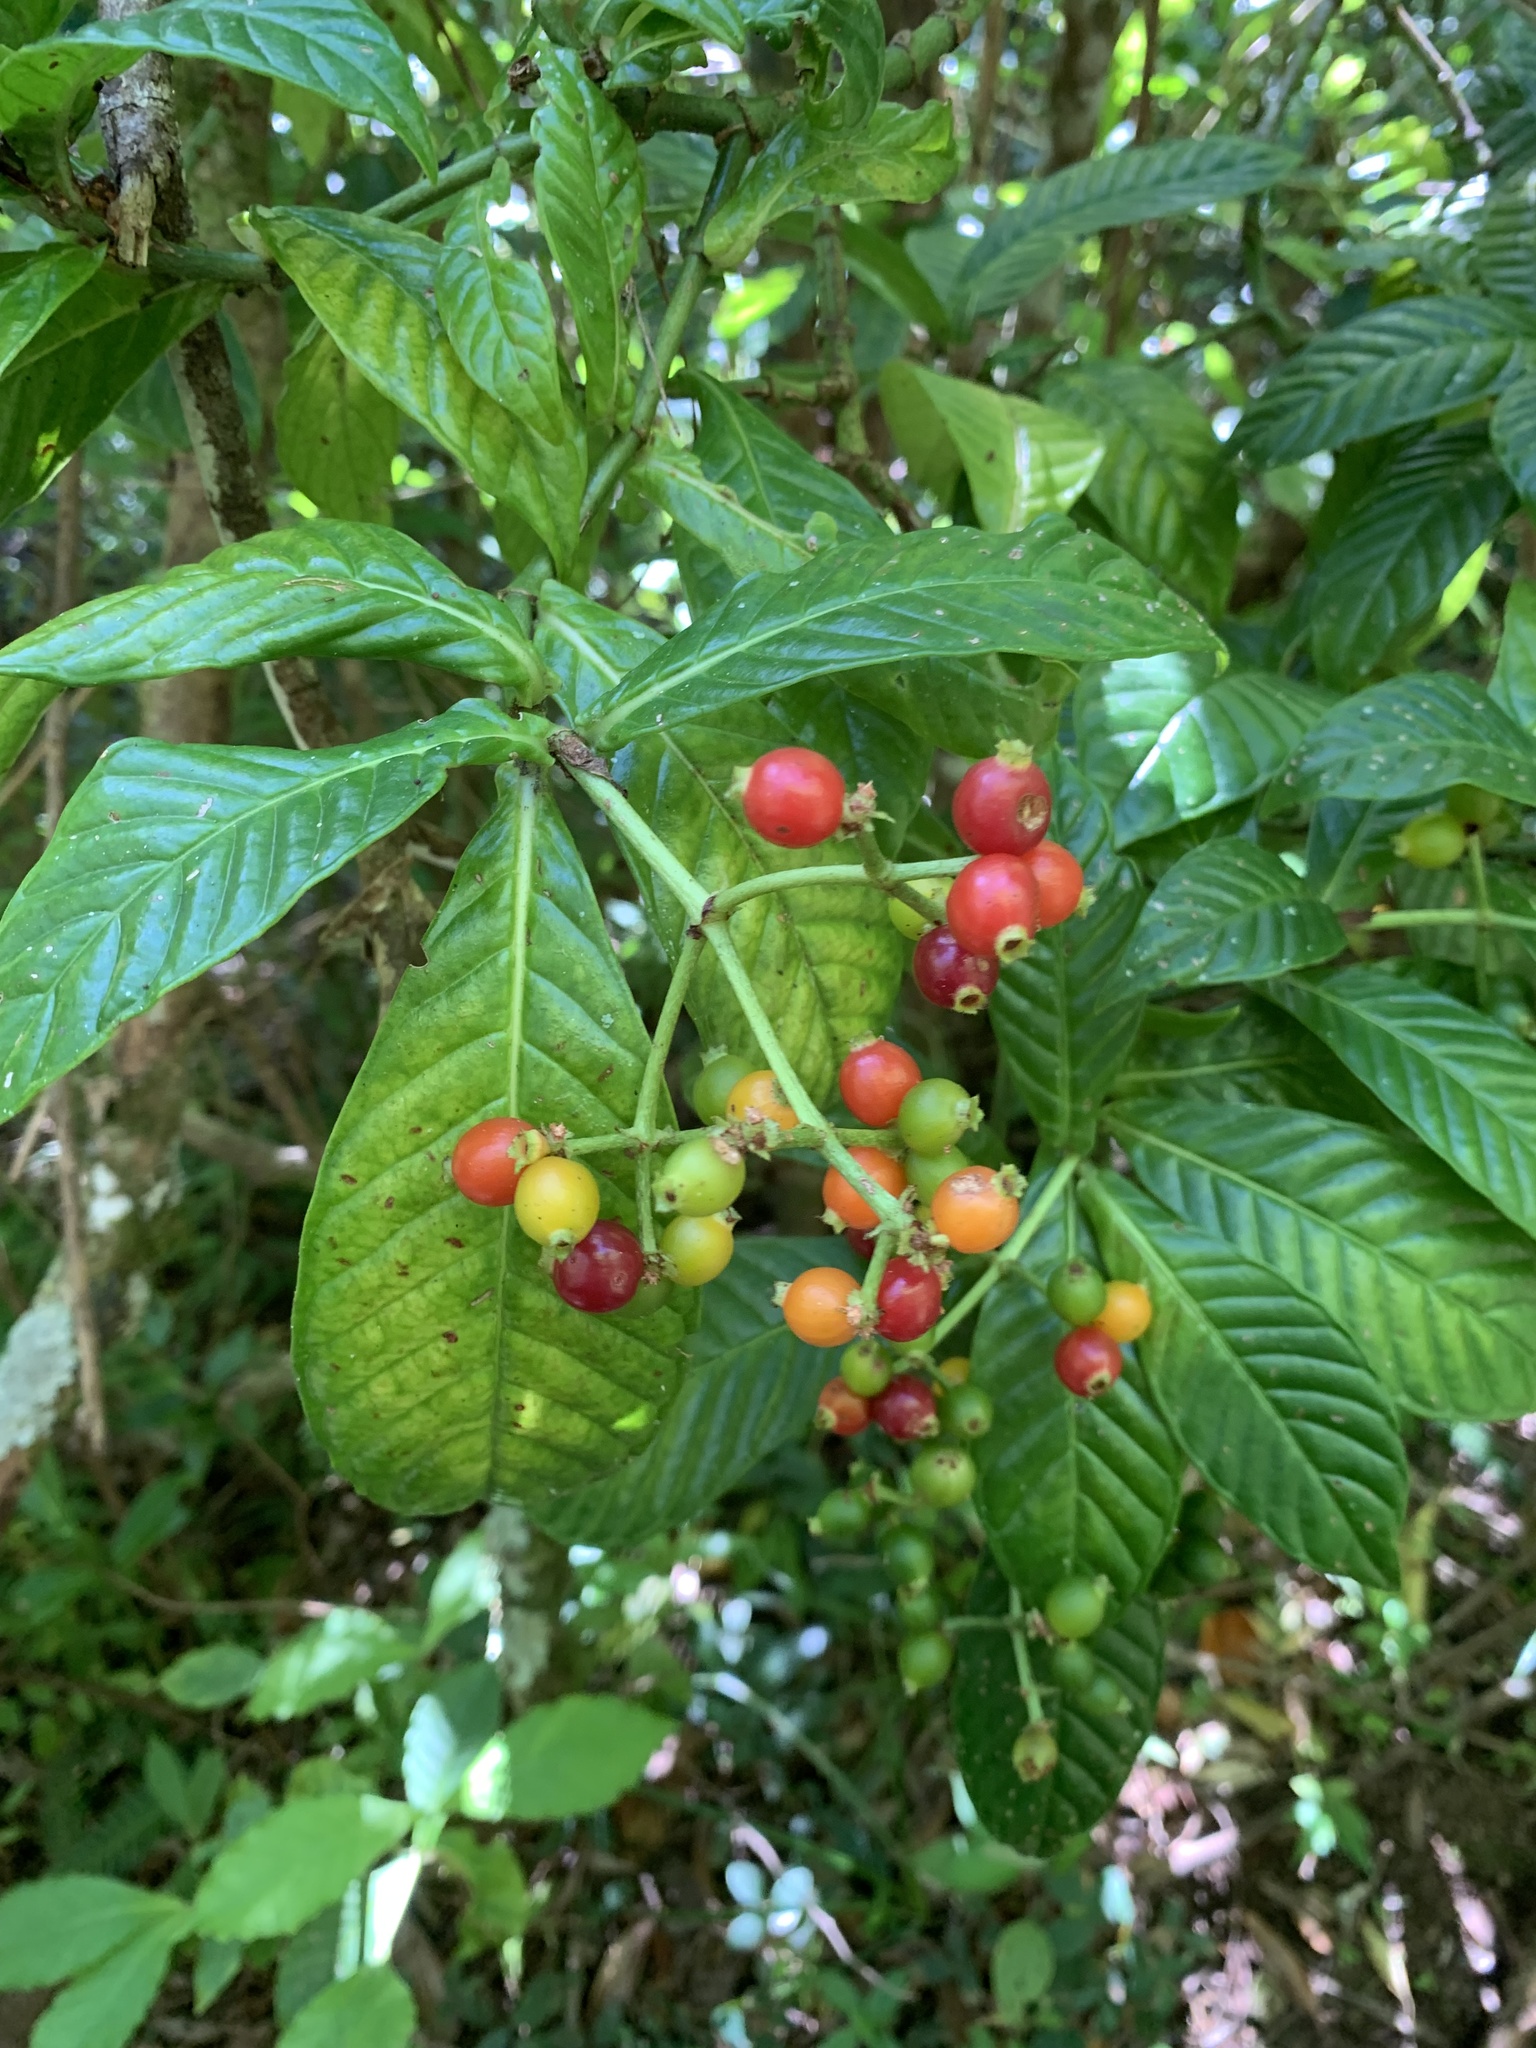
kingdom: Plantae
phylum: Tracheophyta
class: Magnoliopsida
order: Gentianales
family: Rubiaceae
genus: Psychotria
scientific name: Psychotria monteverdensis
